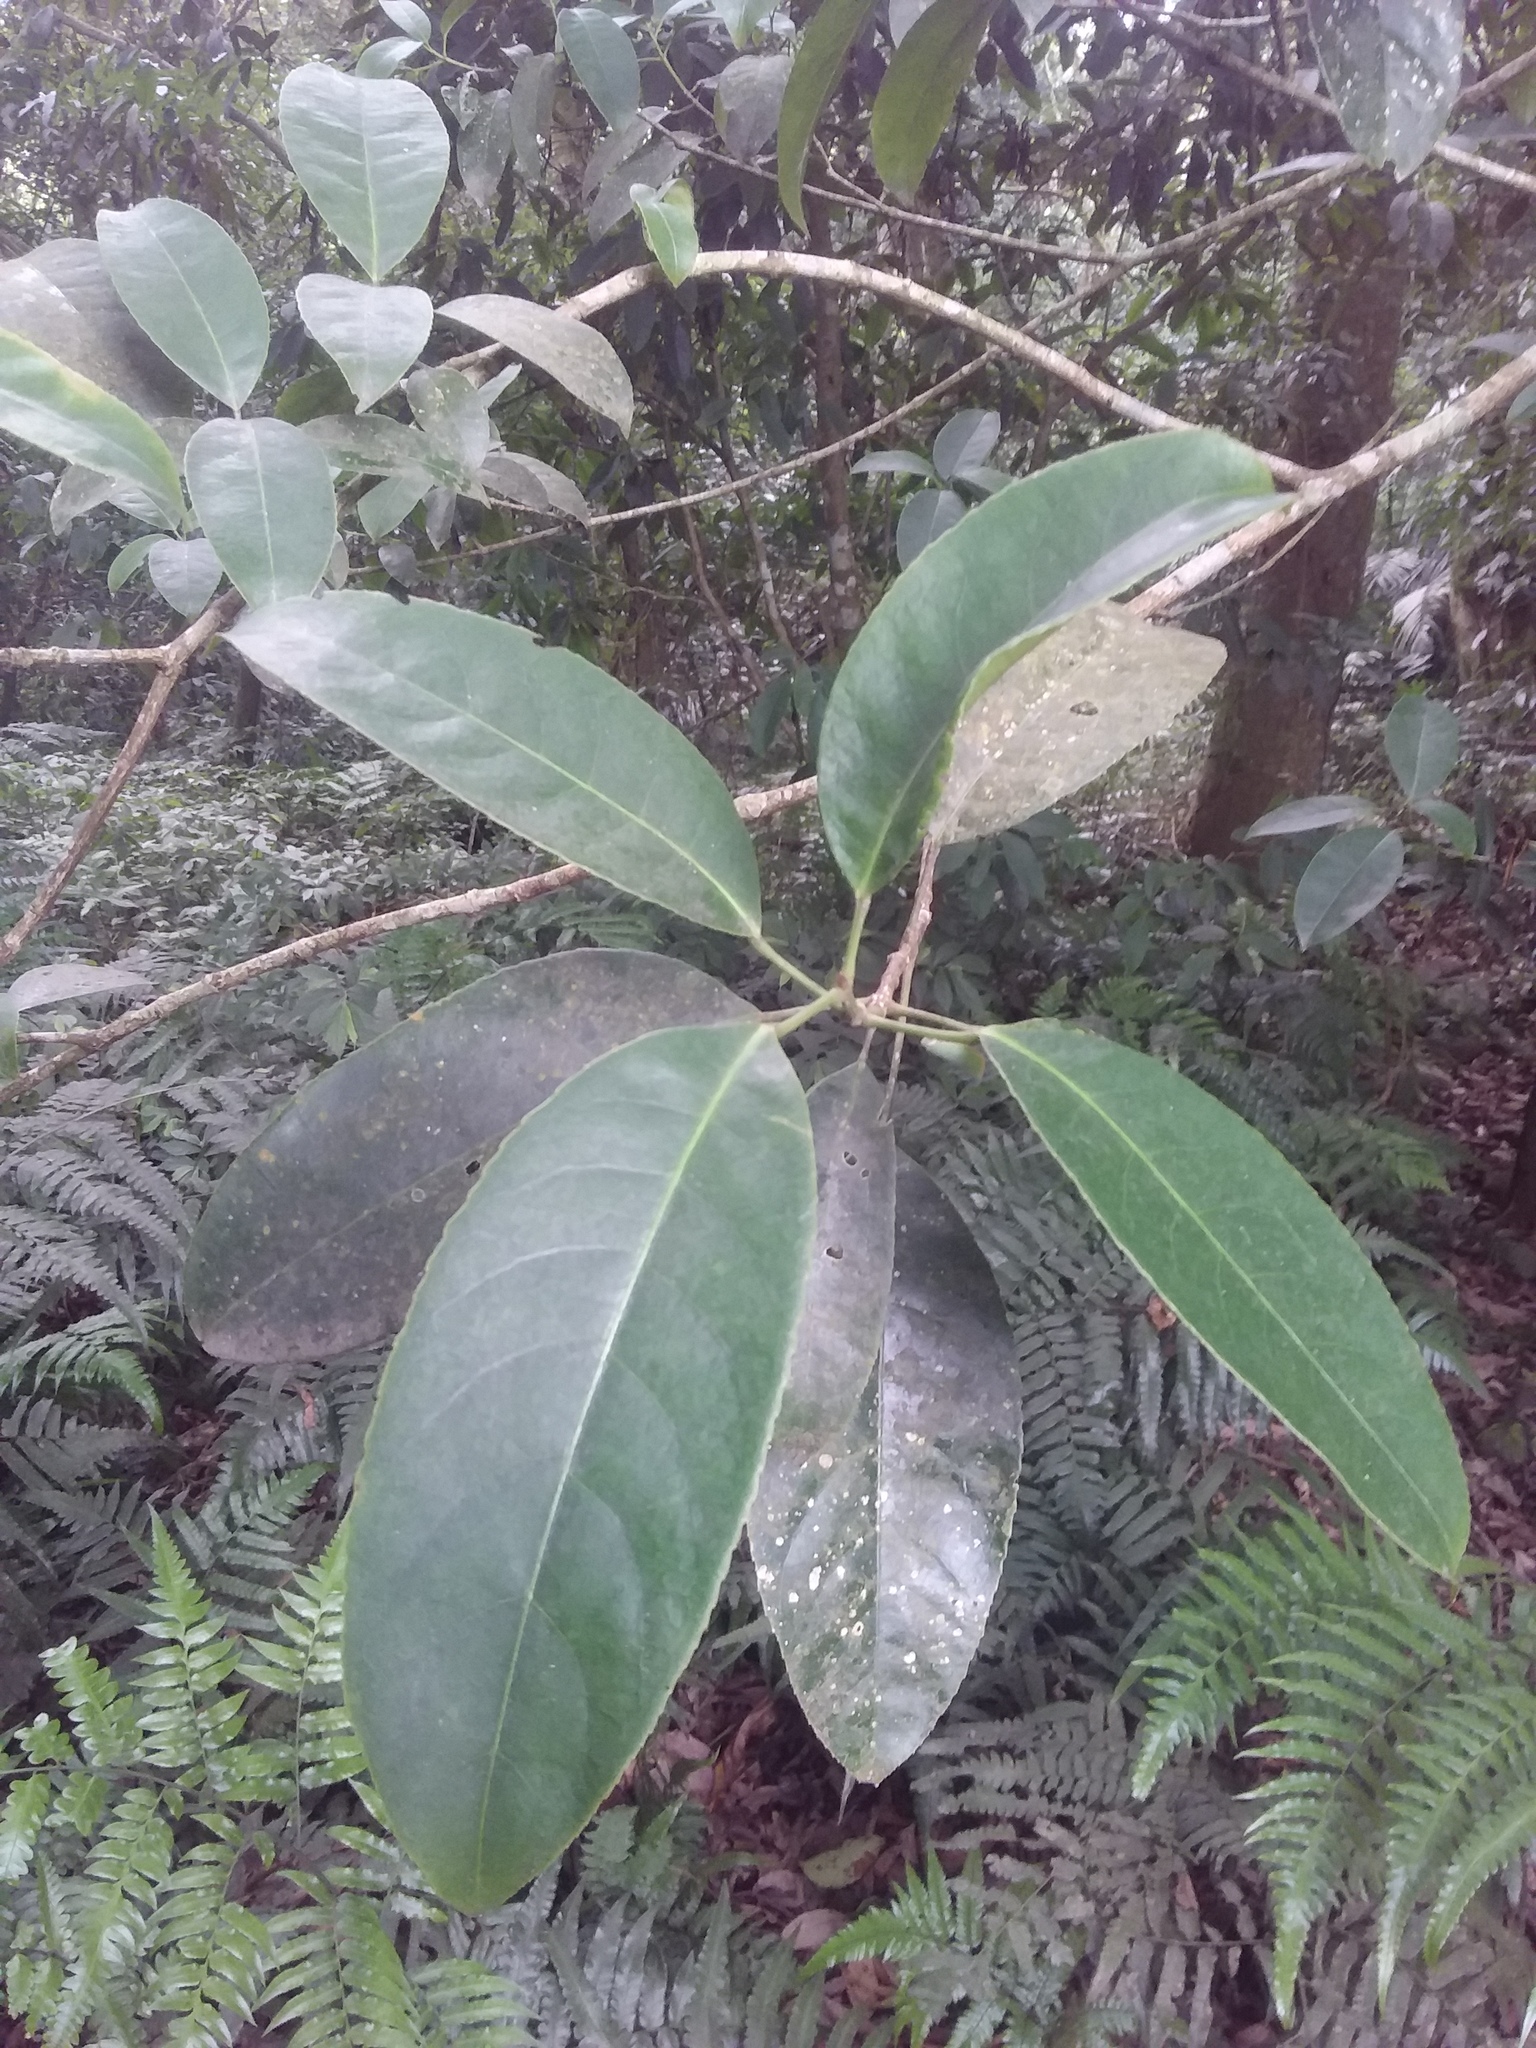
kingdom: Plantae
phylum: Tracheophyta
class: Magnoliopsida
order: Crossosomatales
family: Staphyleaceae
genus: Turpinia
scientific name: Turpinia formosana
